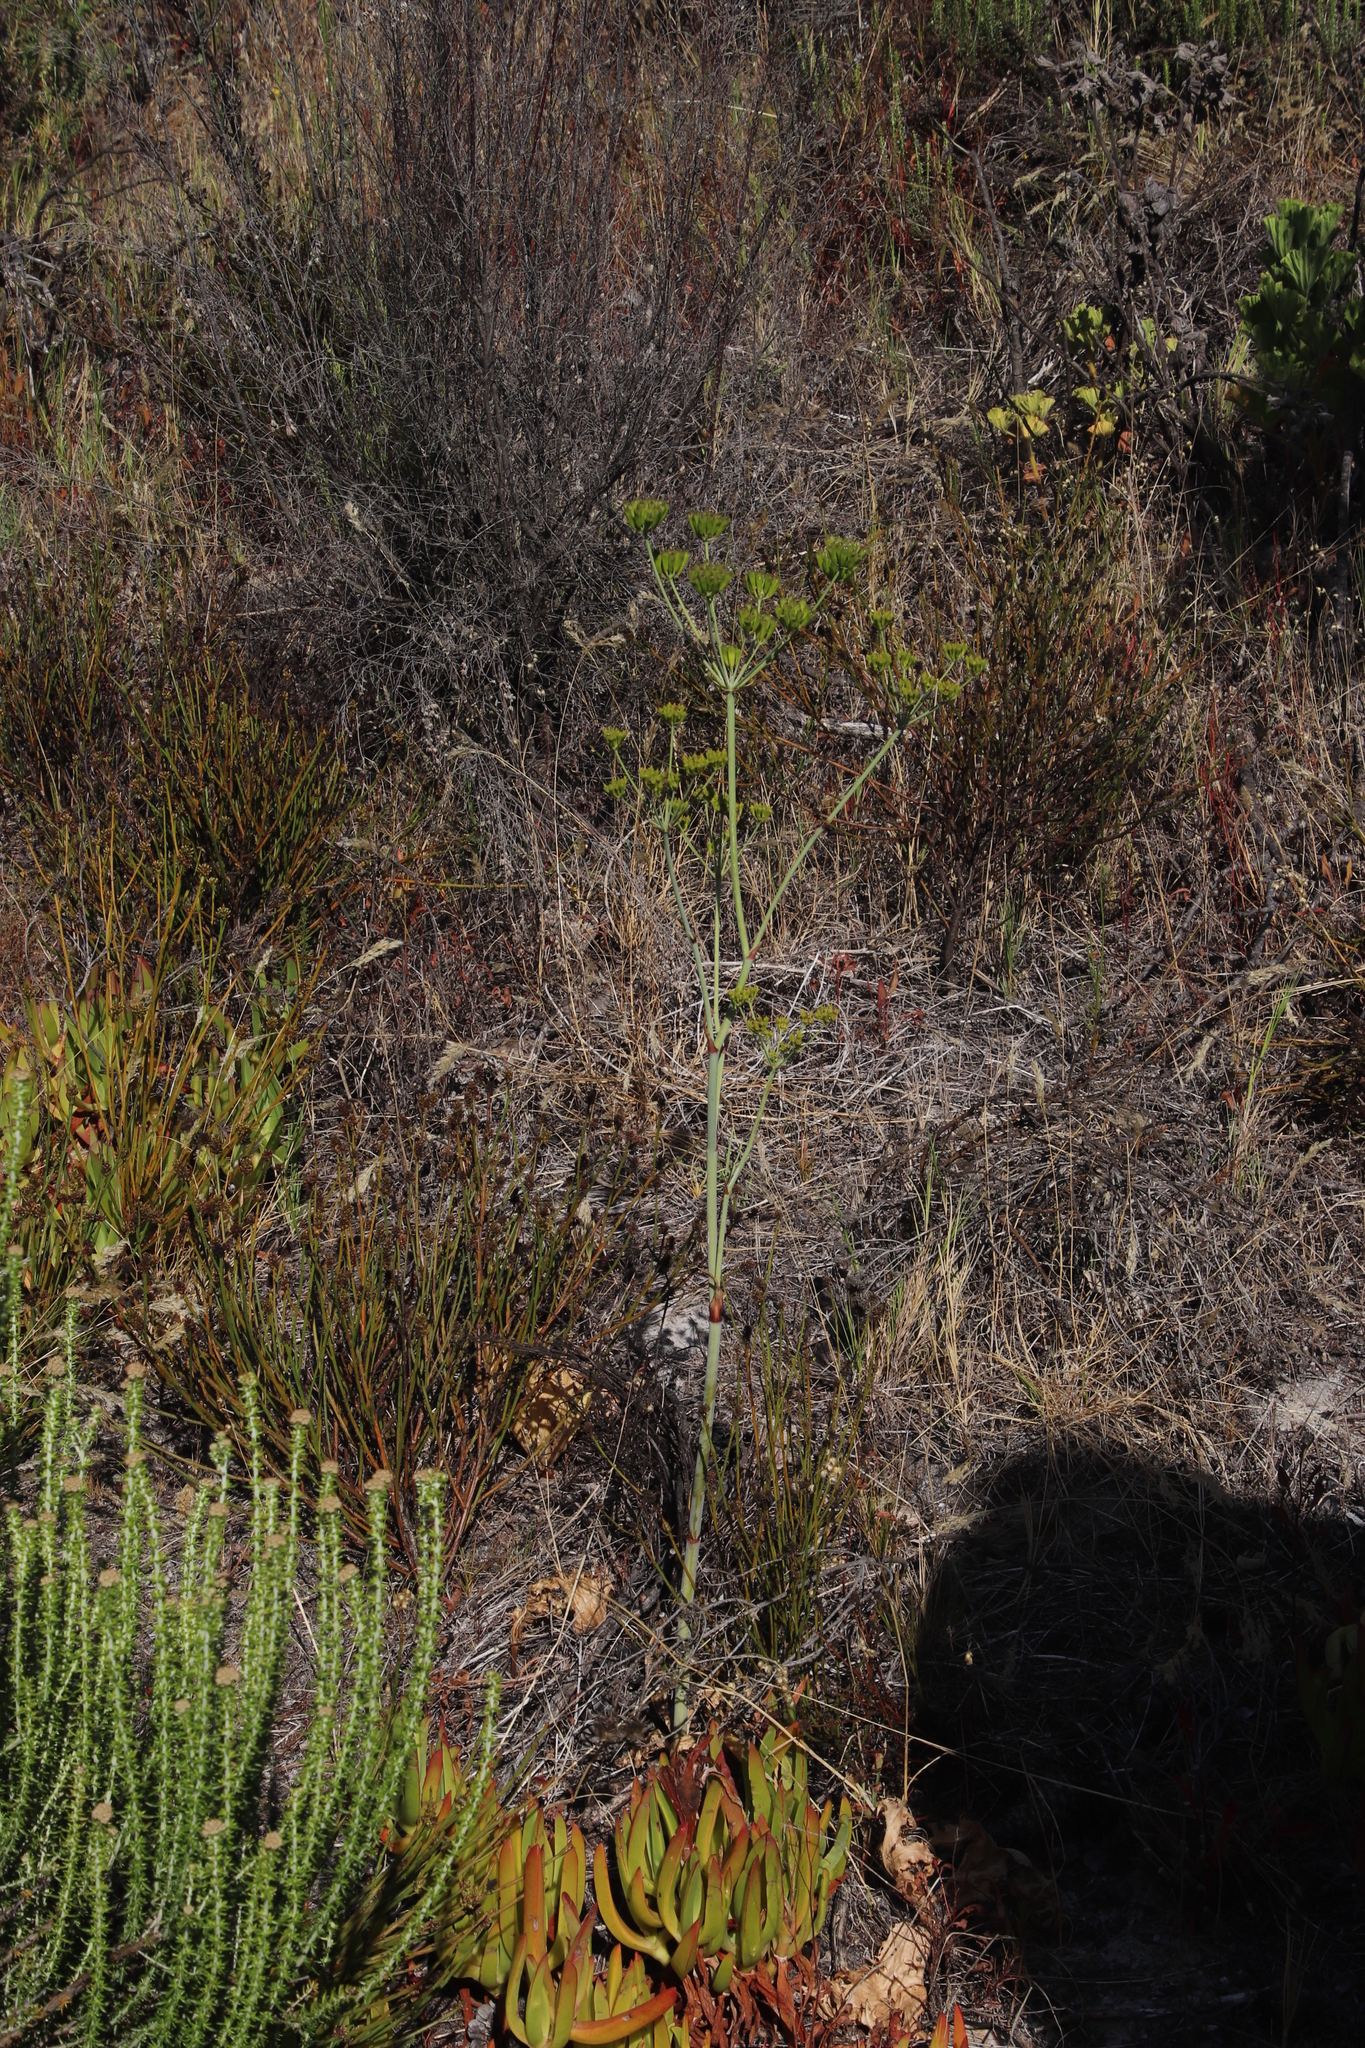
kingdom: Plantae
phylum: Tracheophyta
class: Magnoliopsida
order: Apiales
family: Apiaceae
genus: Lichtensteinia
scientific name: Lichtensteinia lacera
